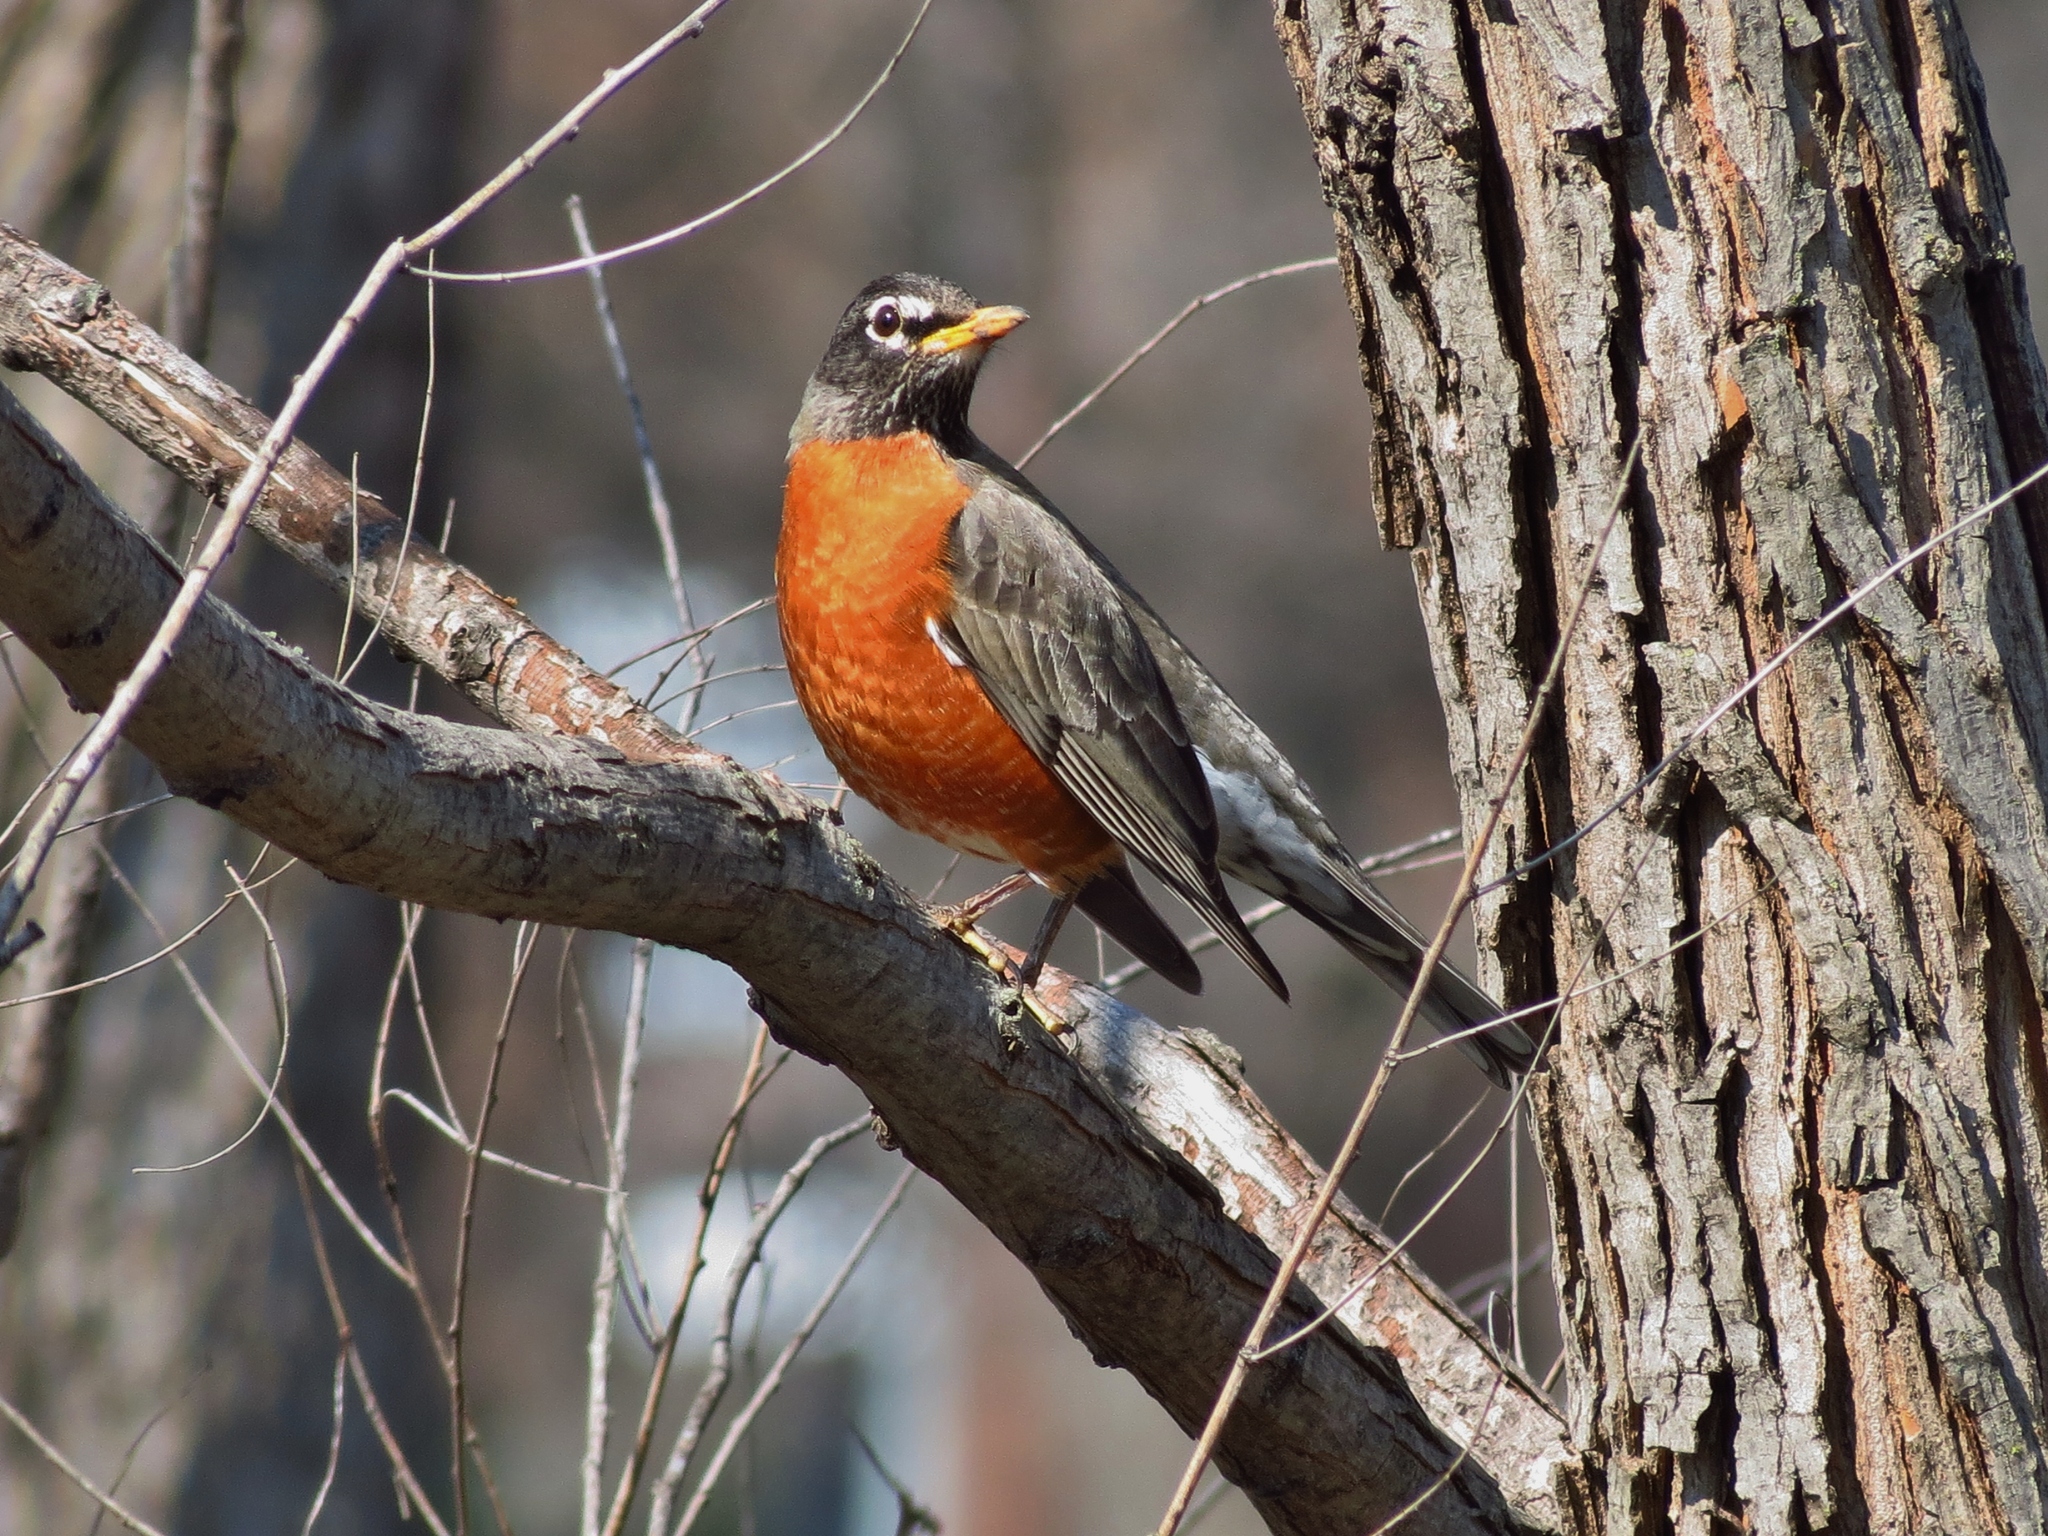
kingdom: Animalia
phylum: Chordata
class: Aves
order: Passeriformes
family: Turdidae
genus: Turdus
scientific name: Turdus migratorius
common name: American robin
